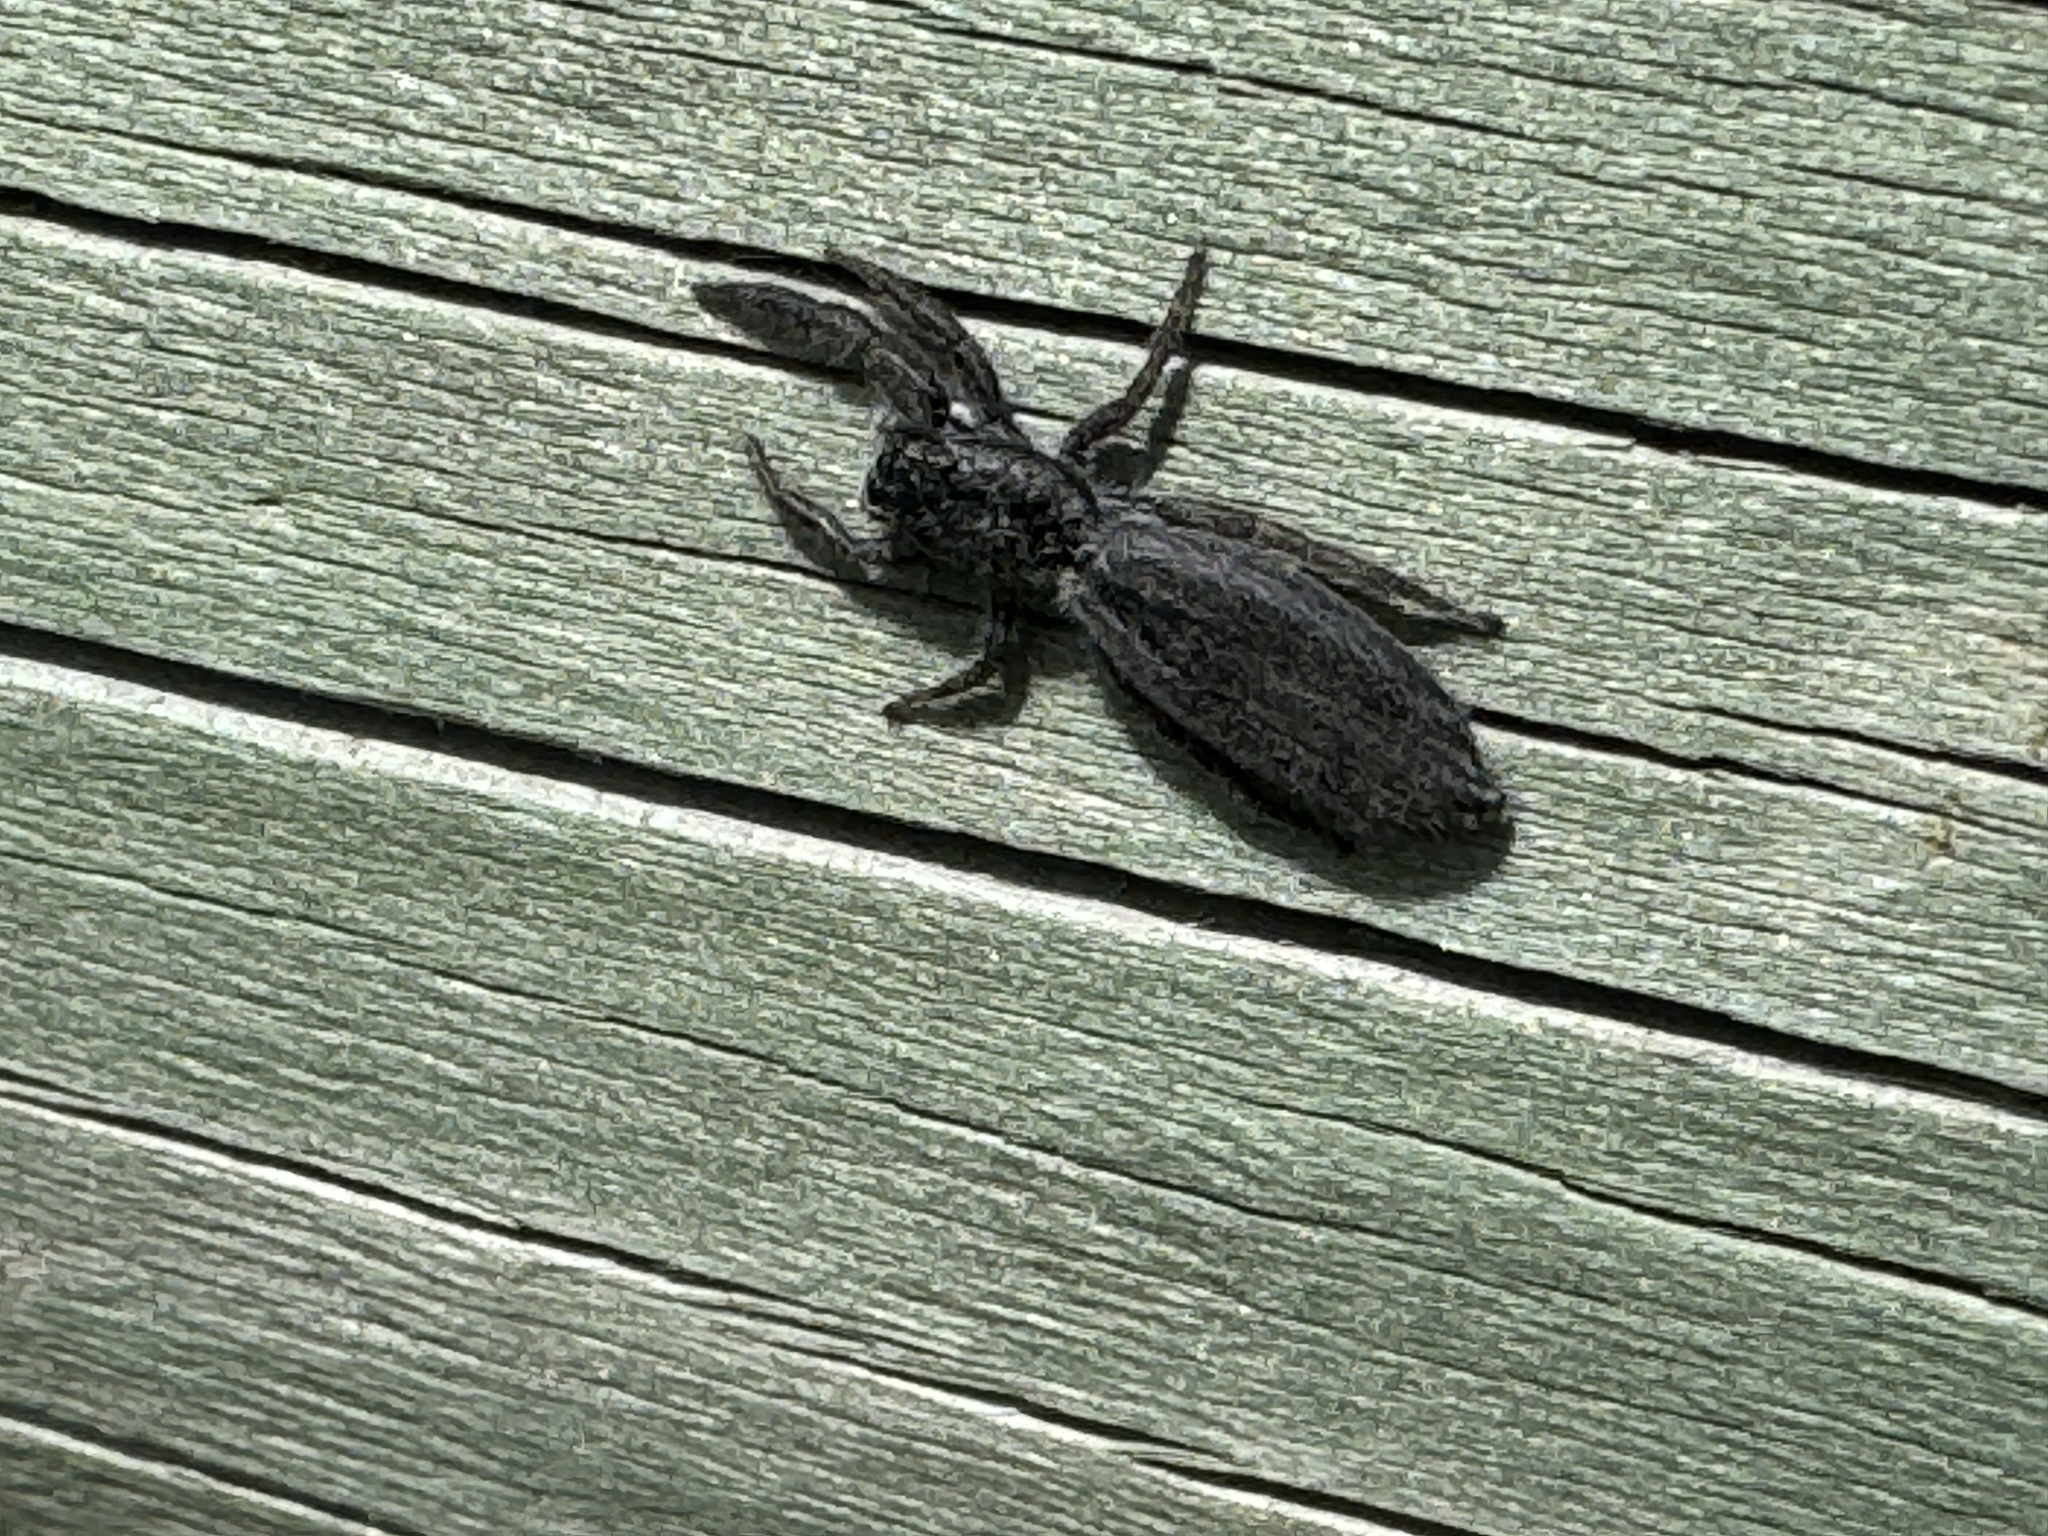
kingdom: Animalia
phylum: Arthropoda
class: Arachnida
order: Araneae
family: Salticidae
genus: Holoplatys
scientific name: Holoplatys apressus
